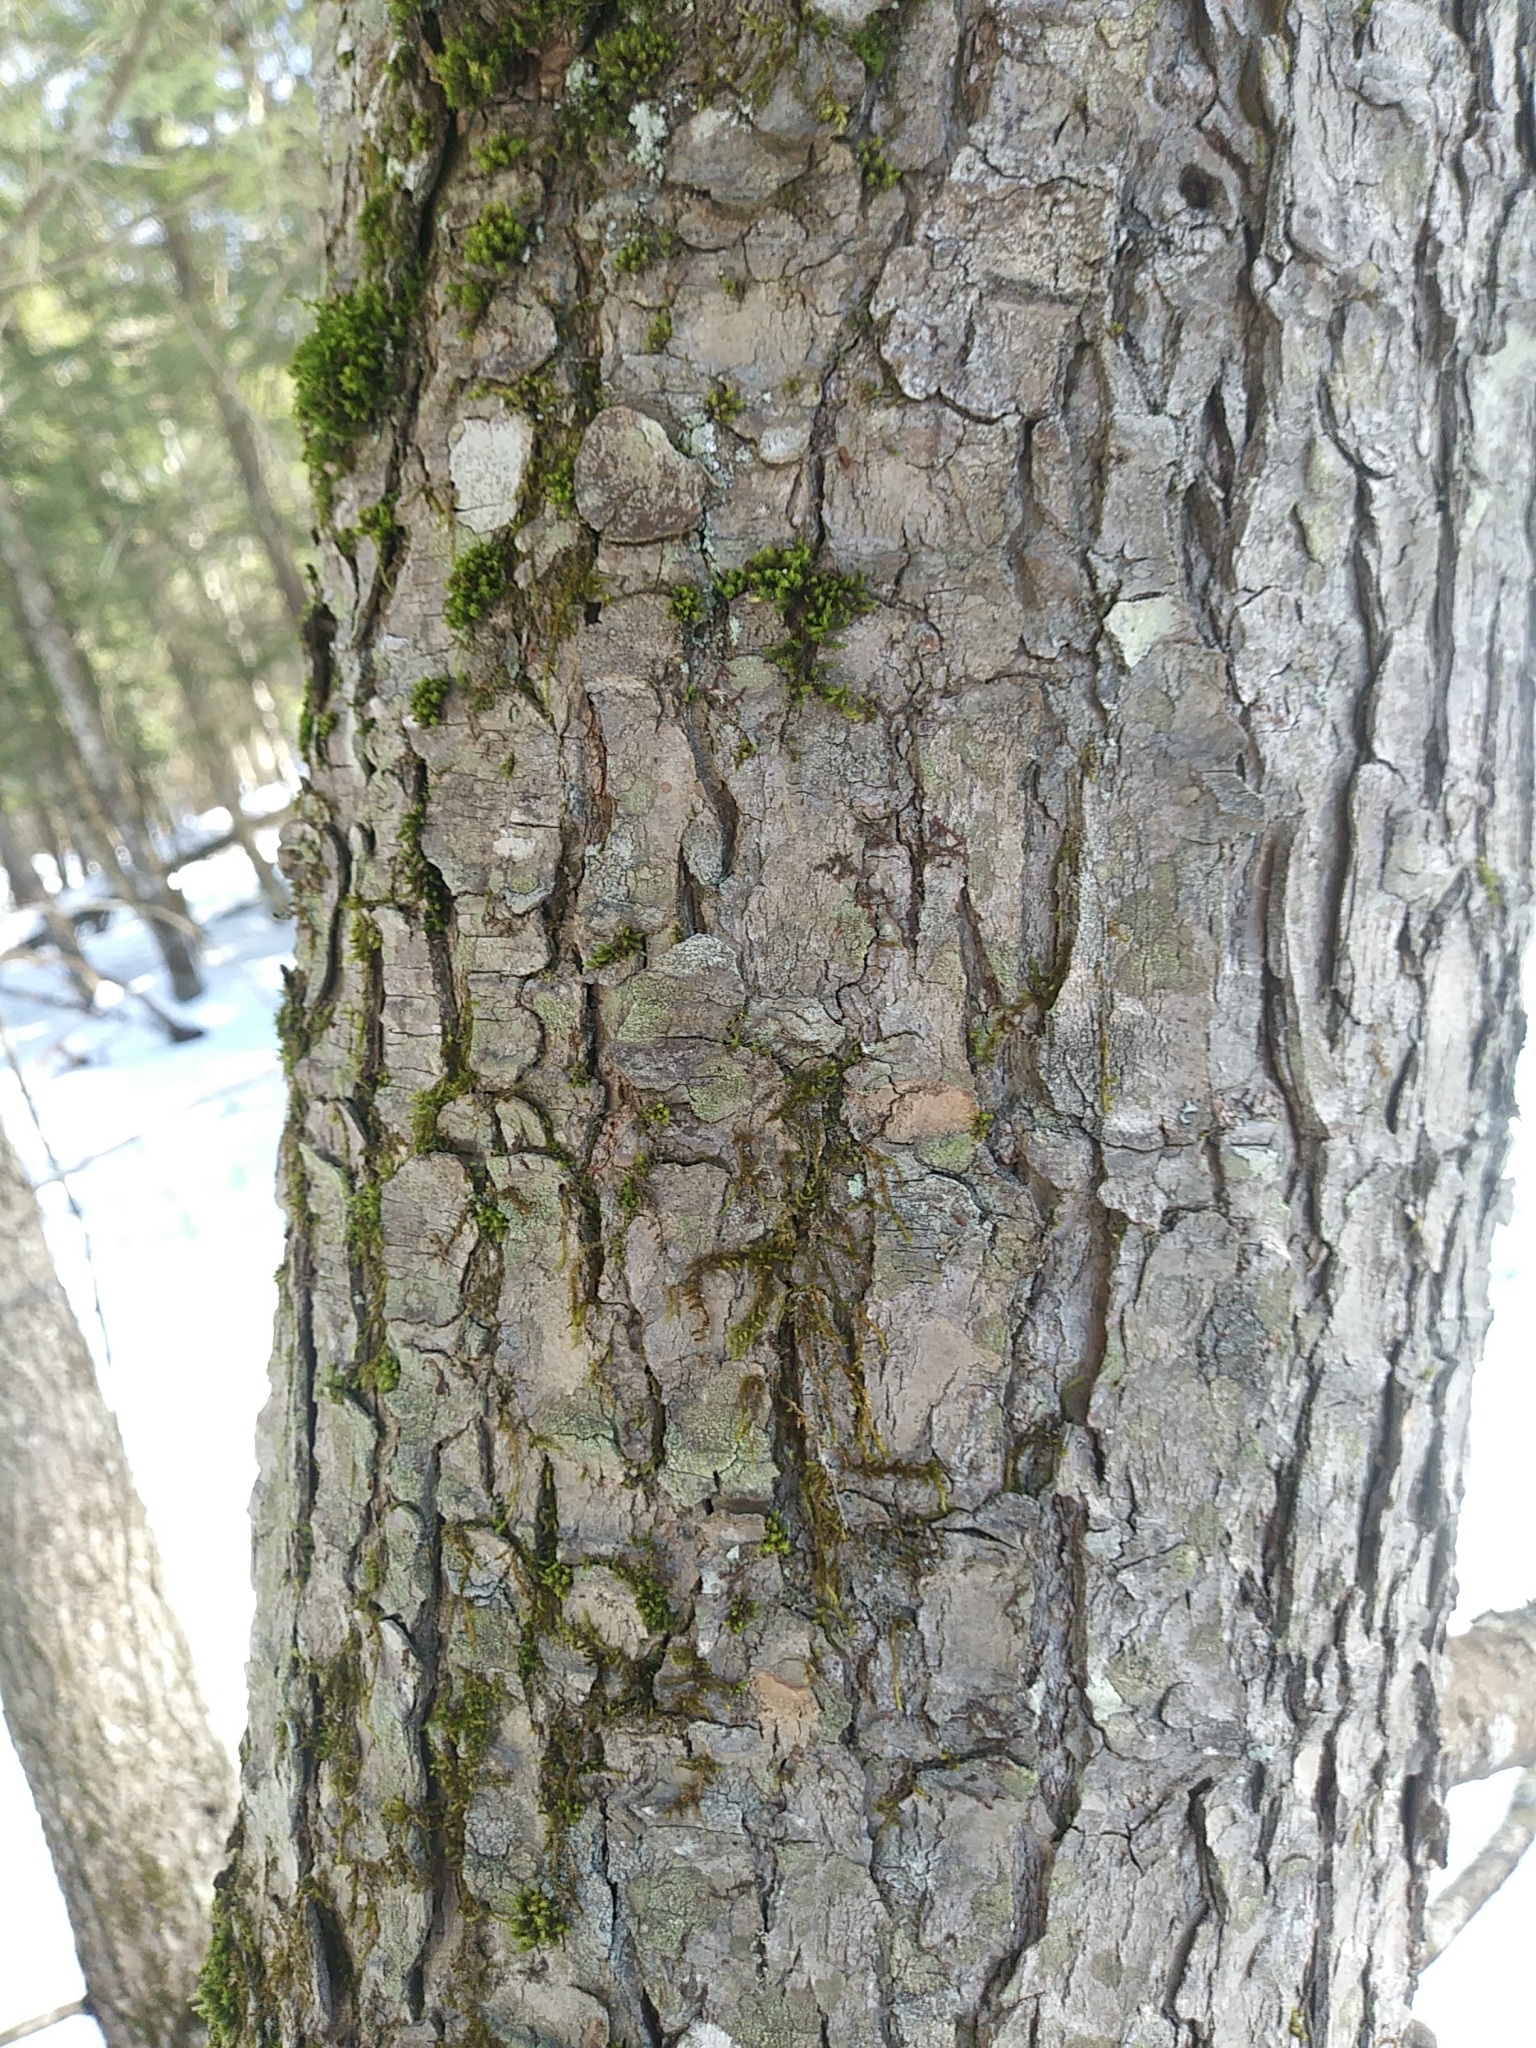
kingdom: Plantae
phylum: Tracheophyta
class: Pinopsida
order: Pinales
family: Pinaceae
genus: Tsuga
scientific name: Tsuga canadensis
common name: Eastern hemlock
